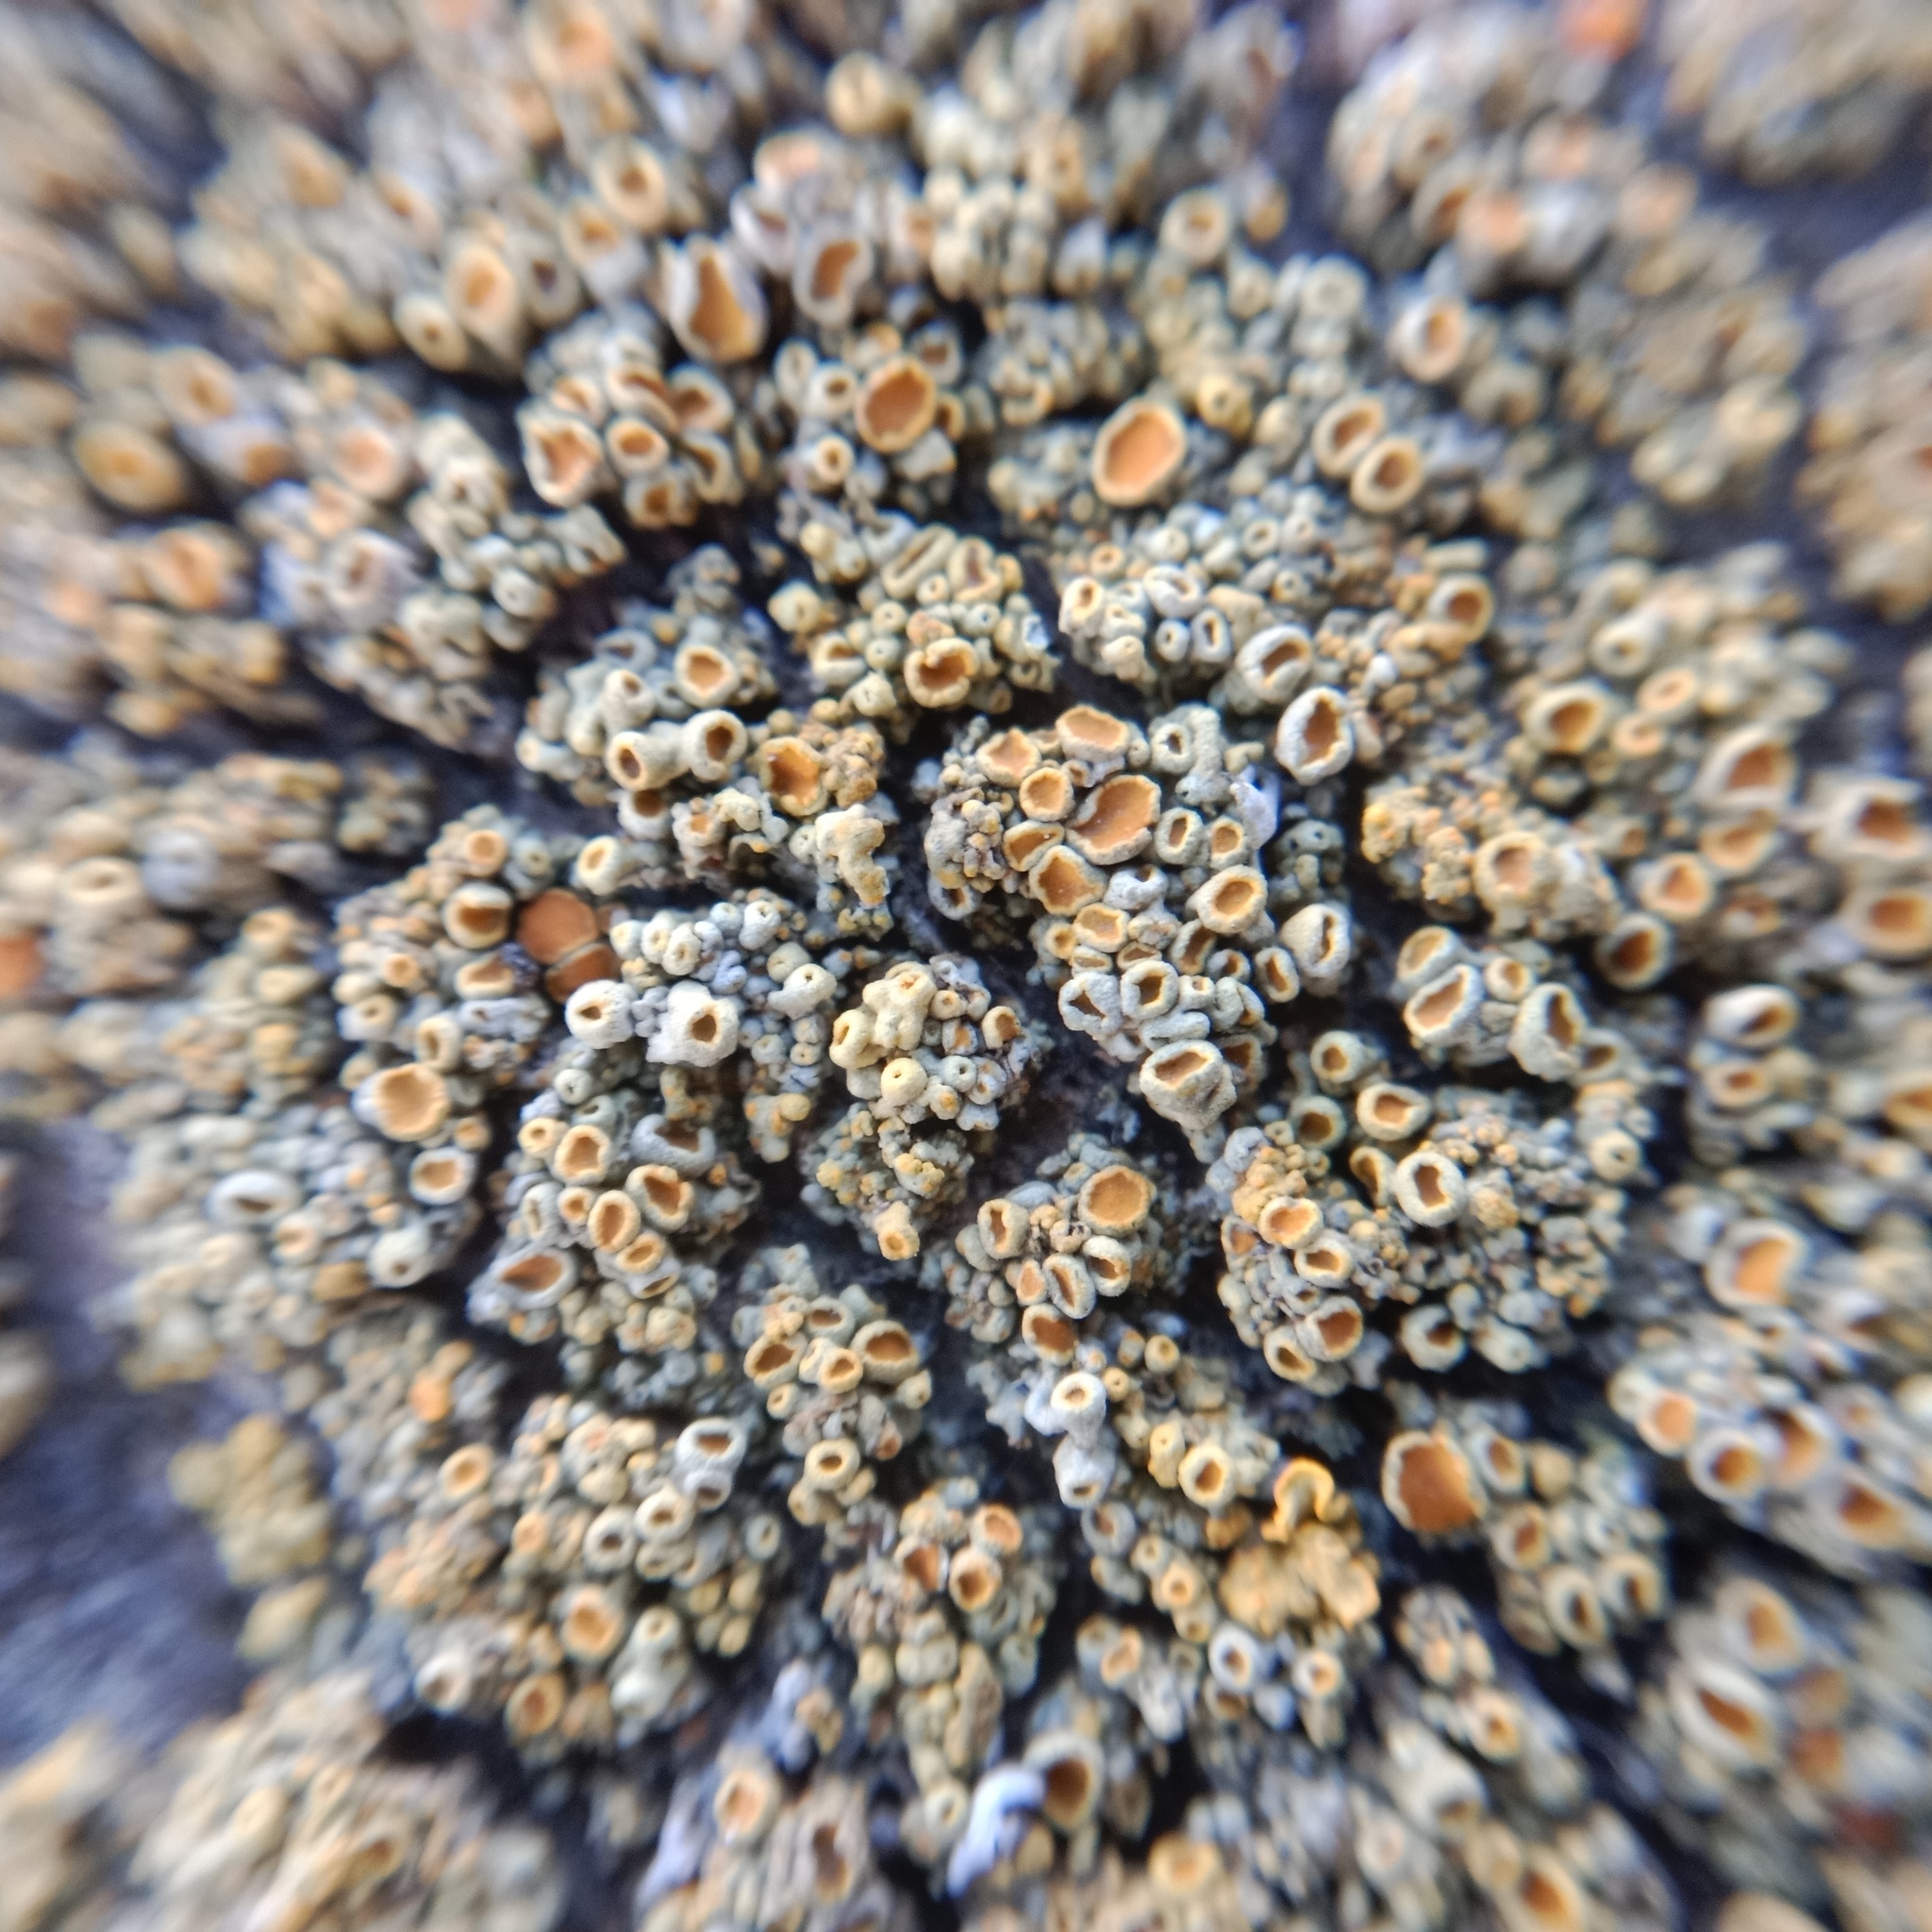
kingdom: Fungi
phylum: Ascomycota
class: Lecanoromycetes
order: Teloschistales
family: Teloschistaceae
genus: Polycauliona
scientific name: Polycauliona polycarpa
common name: Pin-cushion sunburst lichen
